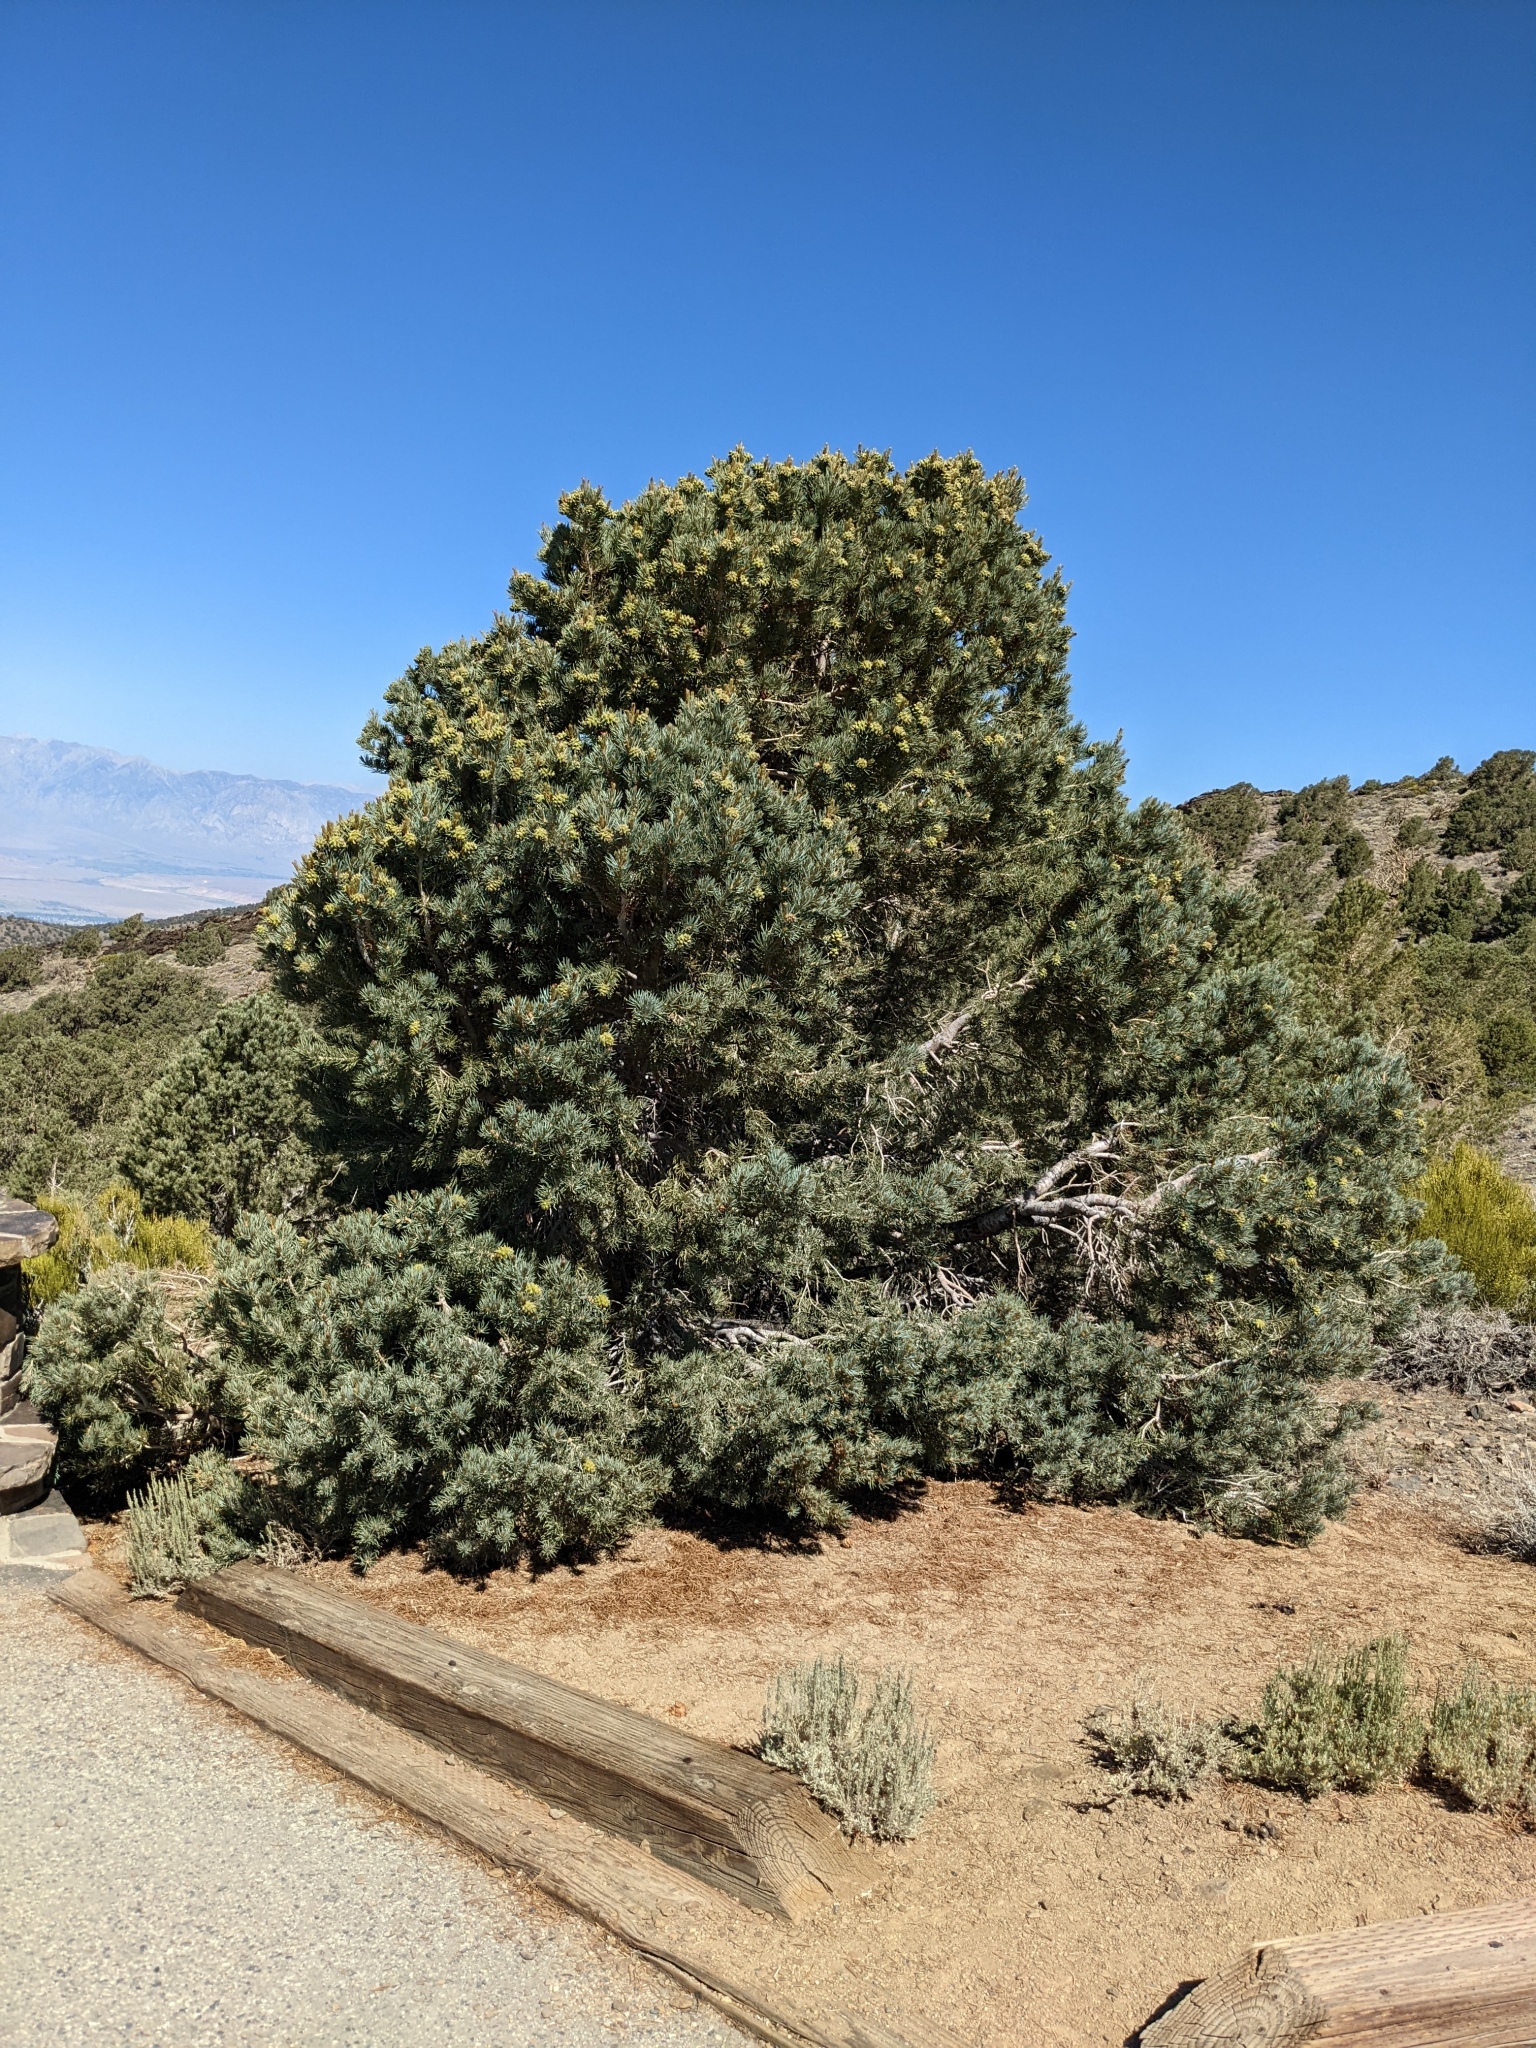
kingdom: Plantae
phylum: Tracheophyta
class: Pinopsida
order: Pinales
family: Pinaceae
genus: Pinus
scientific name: Pinus monophylla
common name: One-leaved nut pine
